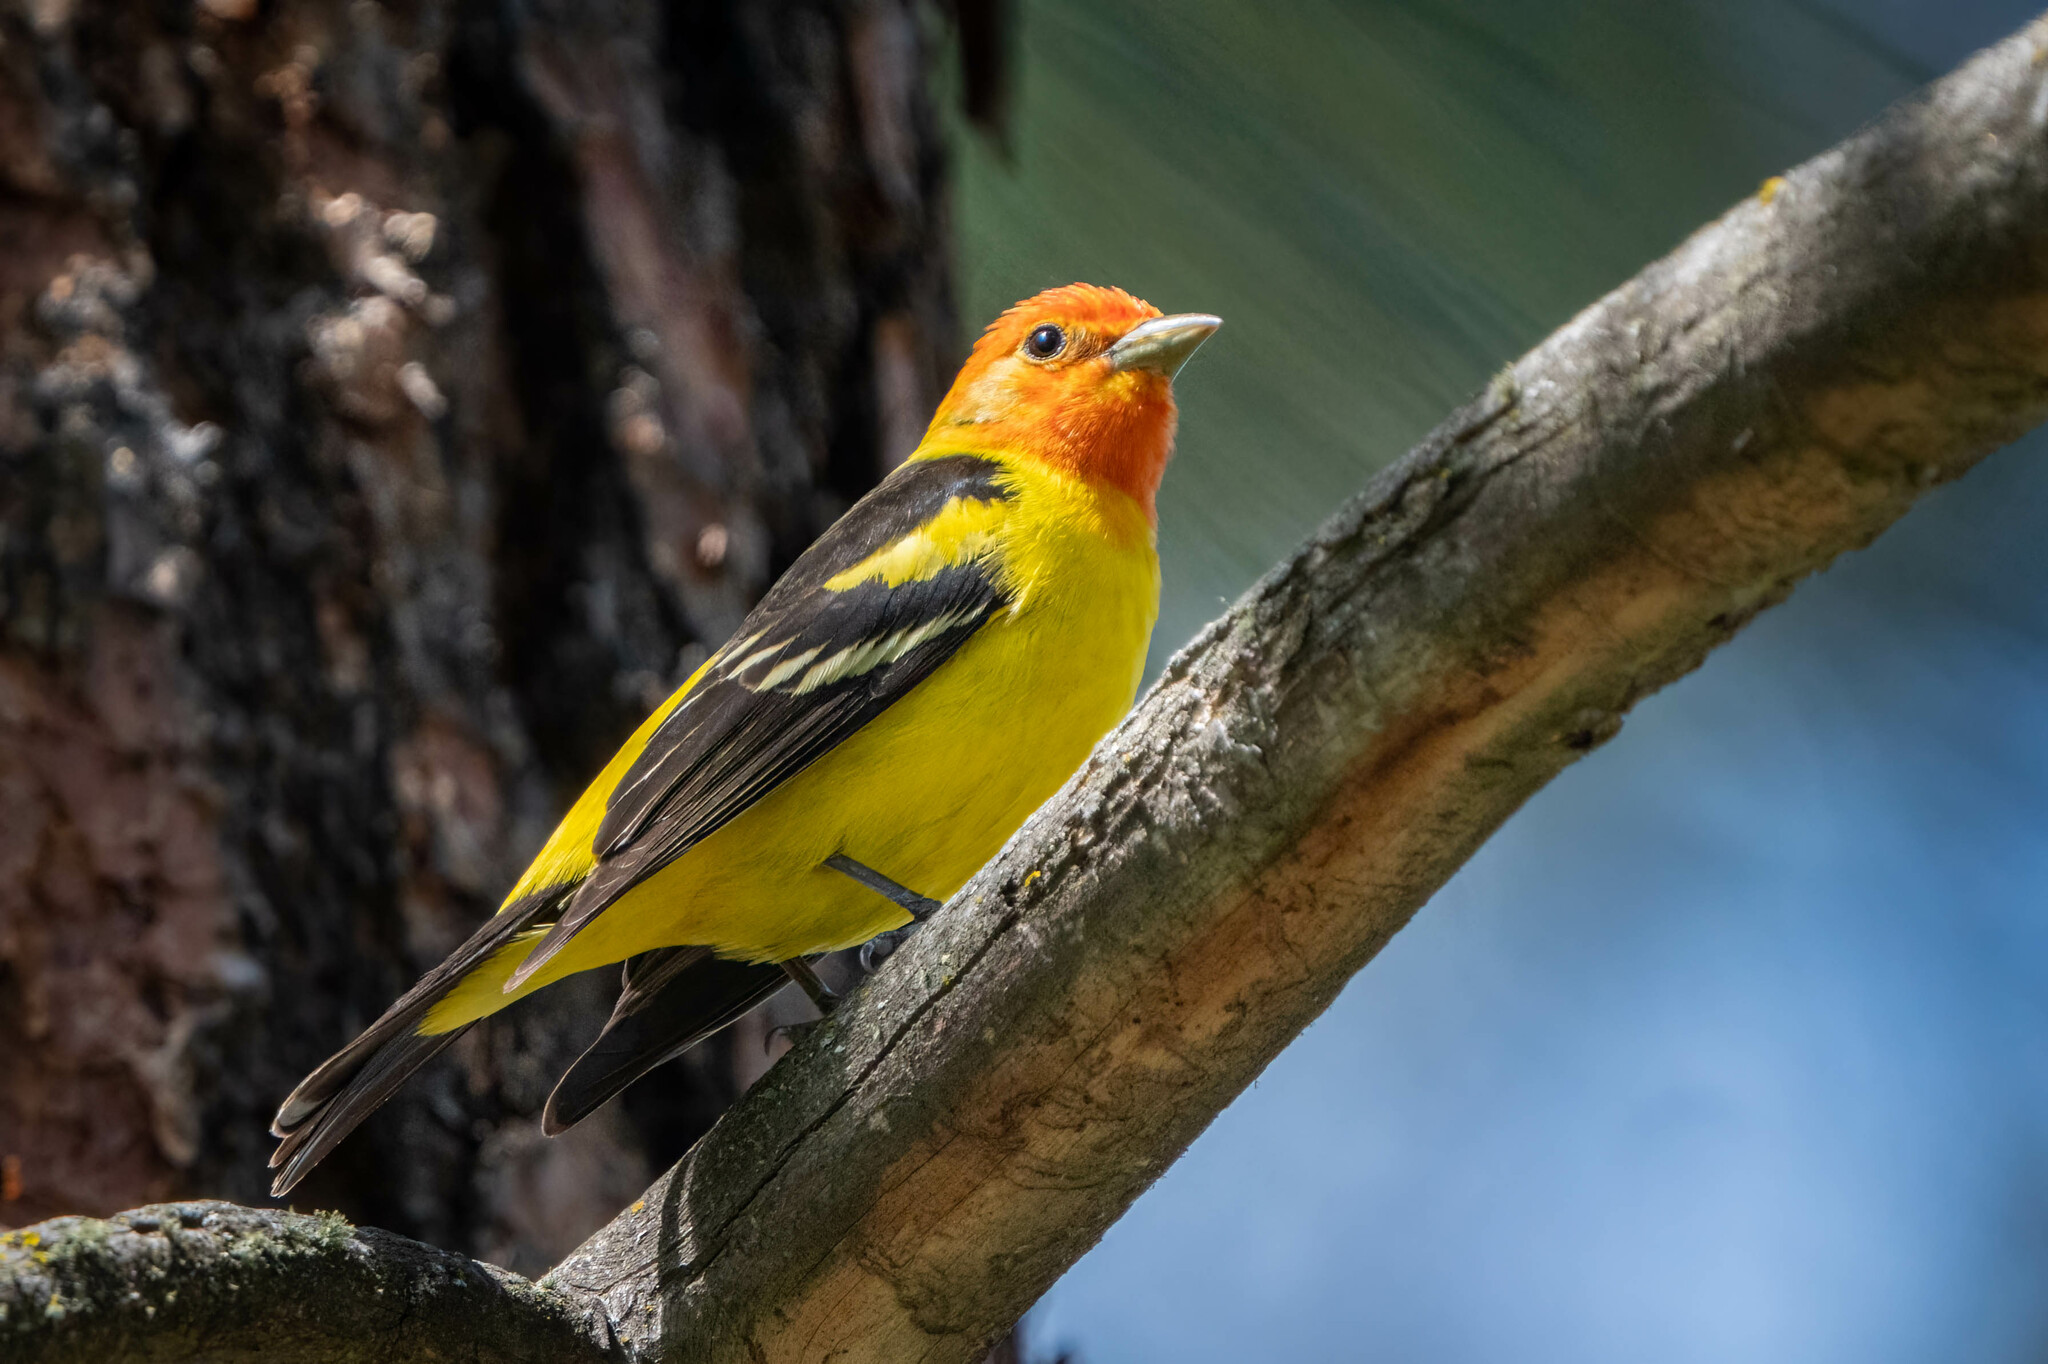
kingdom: Animalia
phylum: Chordata
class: Aves
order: Passeriformes
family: Cardinalidae
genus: Piranga
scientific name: Piranga ludoviciana
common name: Western tanager
